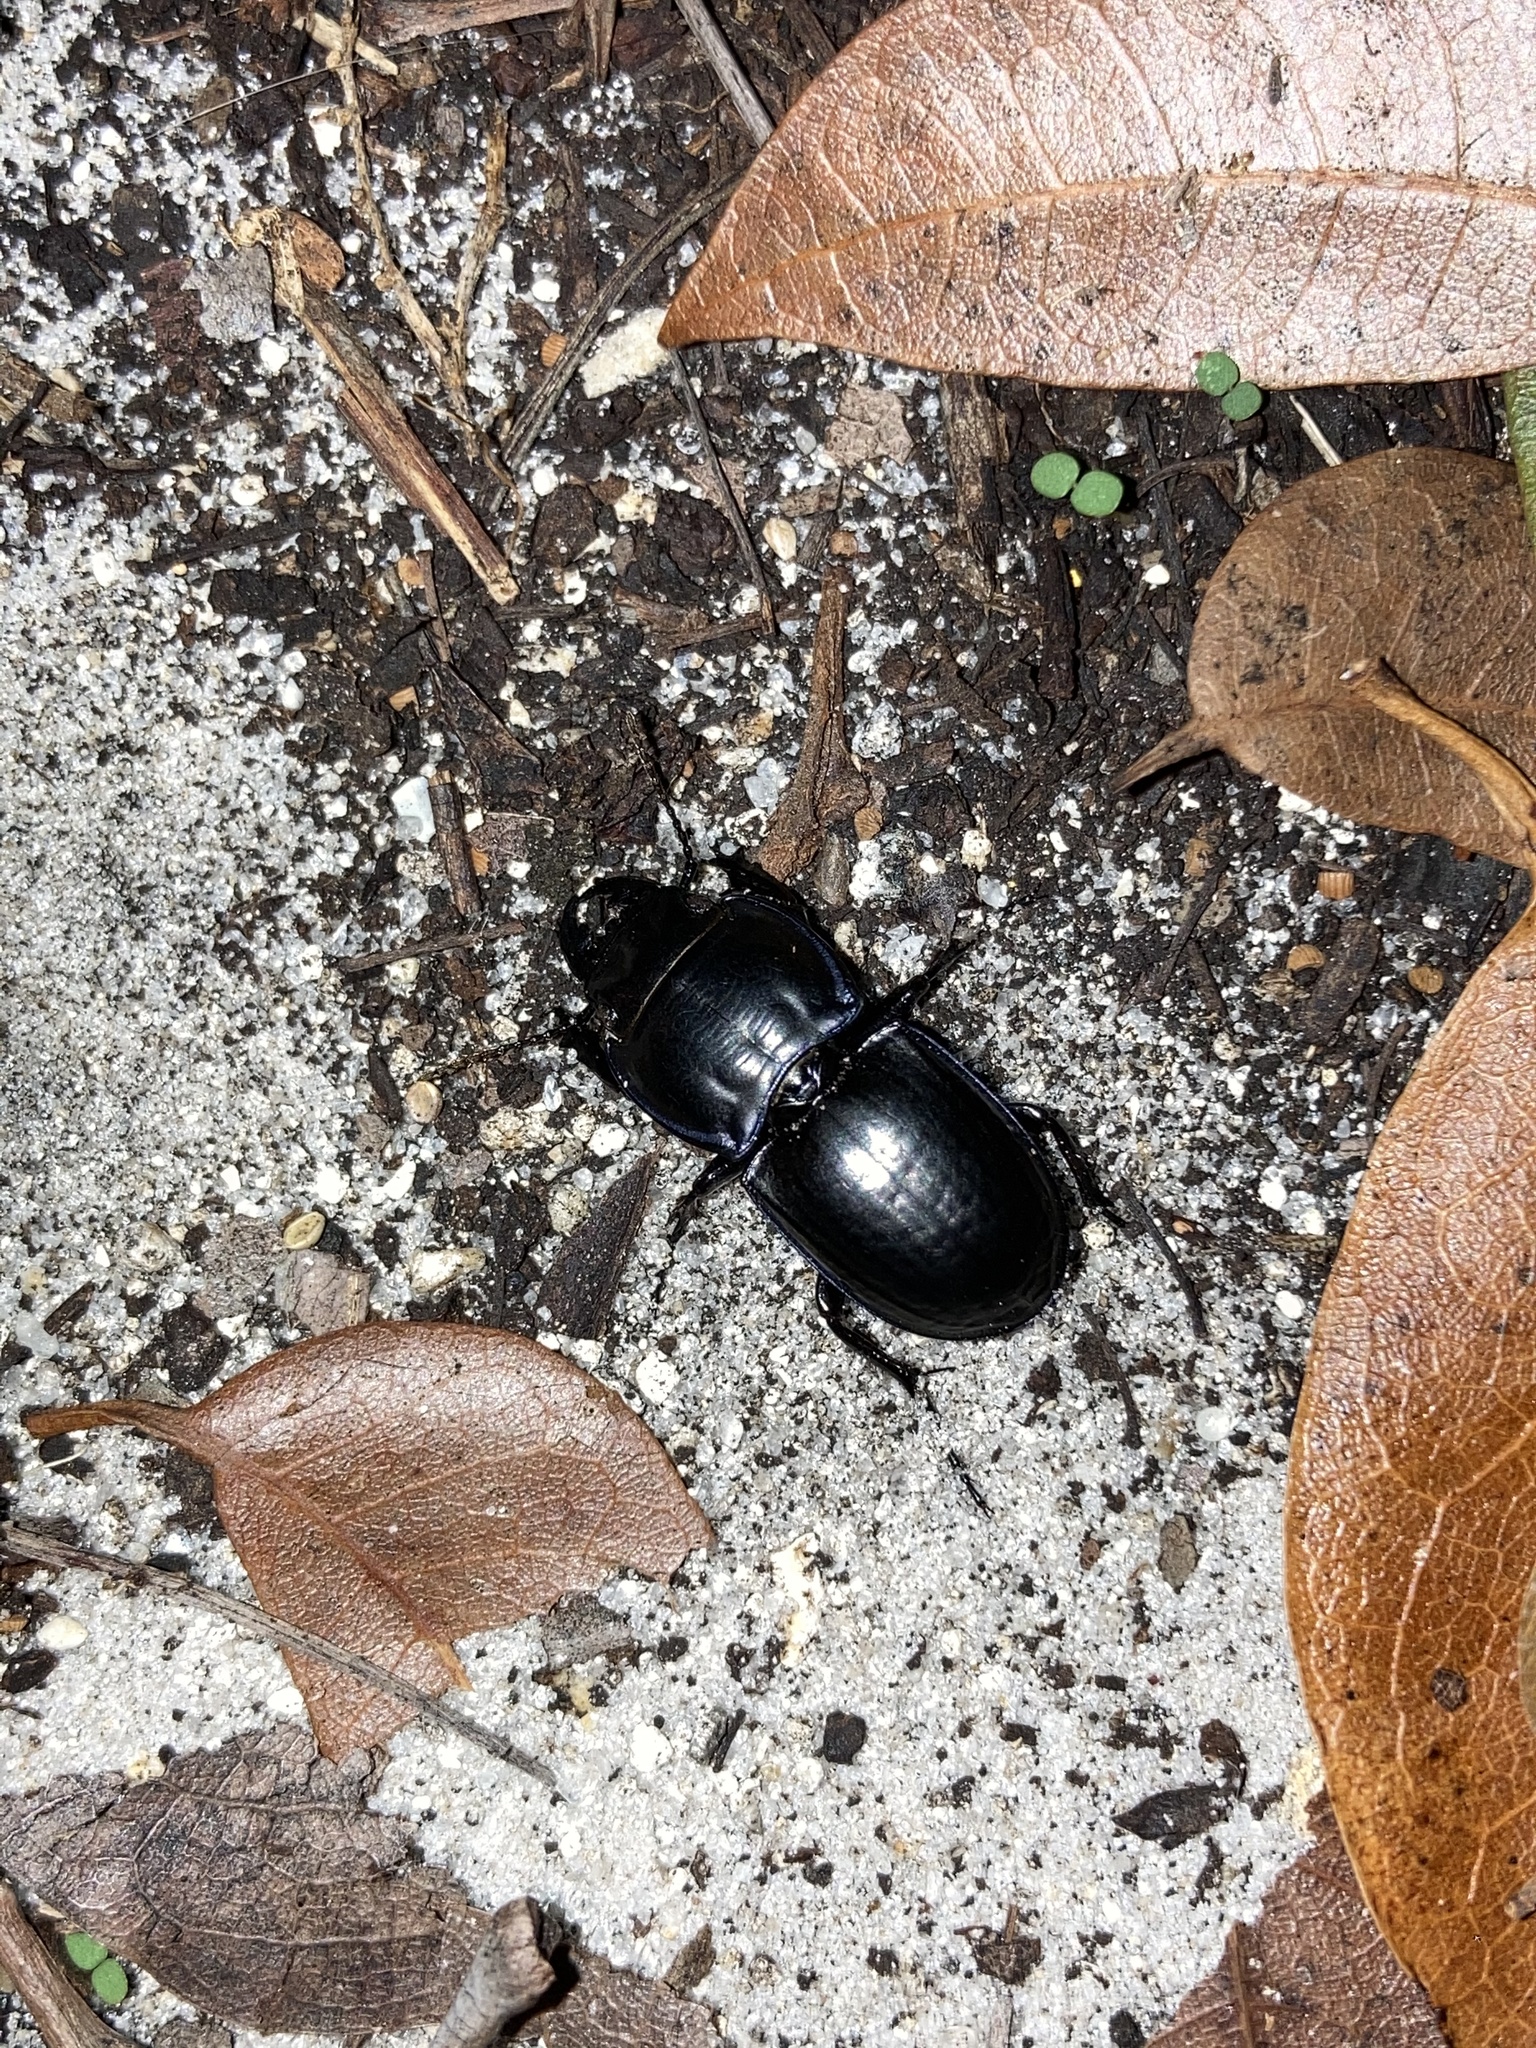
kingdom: Animalia
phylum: Arthropoda
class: Insecta
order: Coleoptera
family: Carabidae
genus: Pasimachus
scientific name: Pasimachus sublaevis
